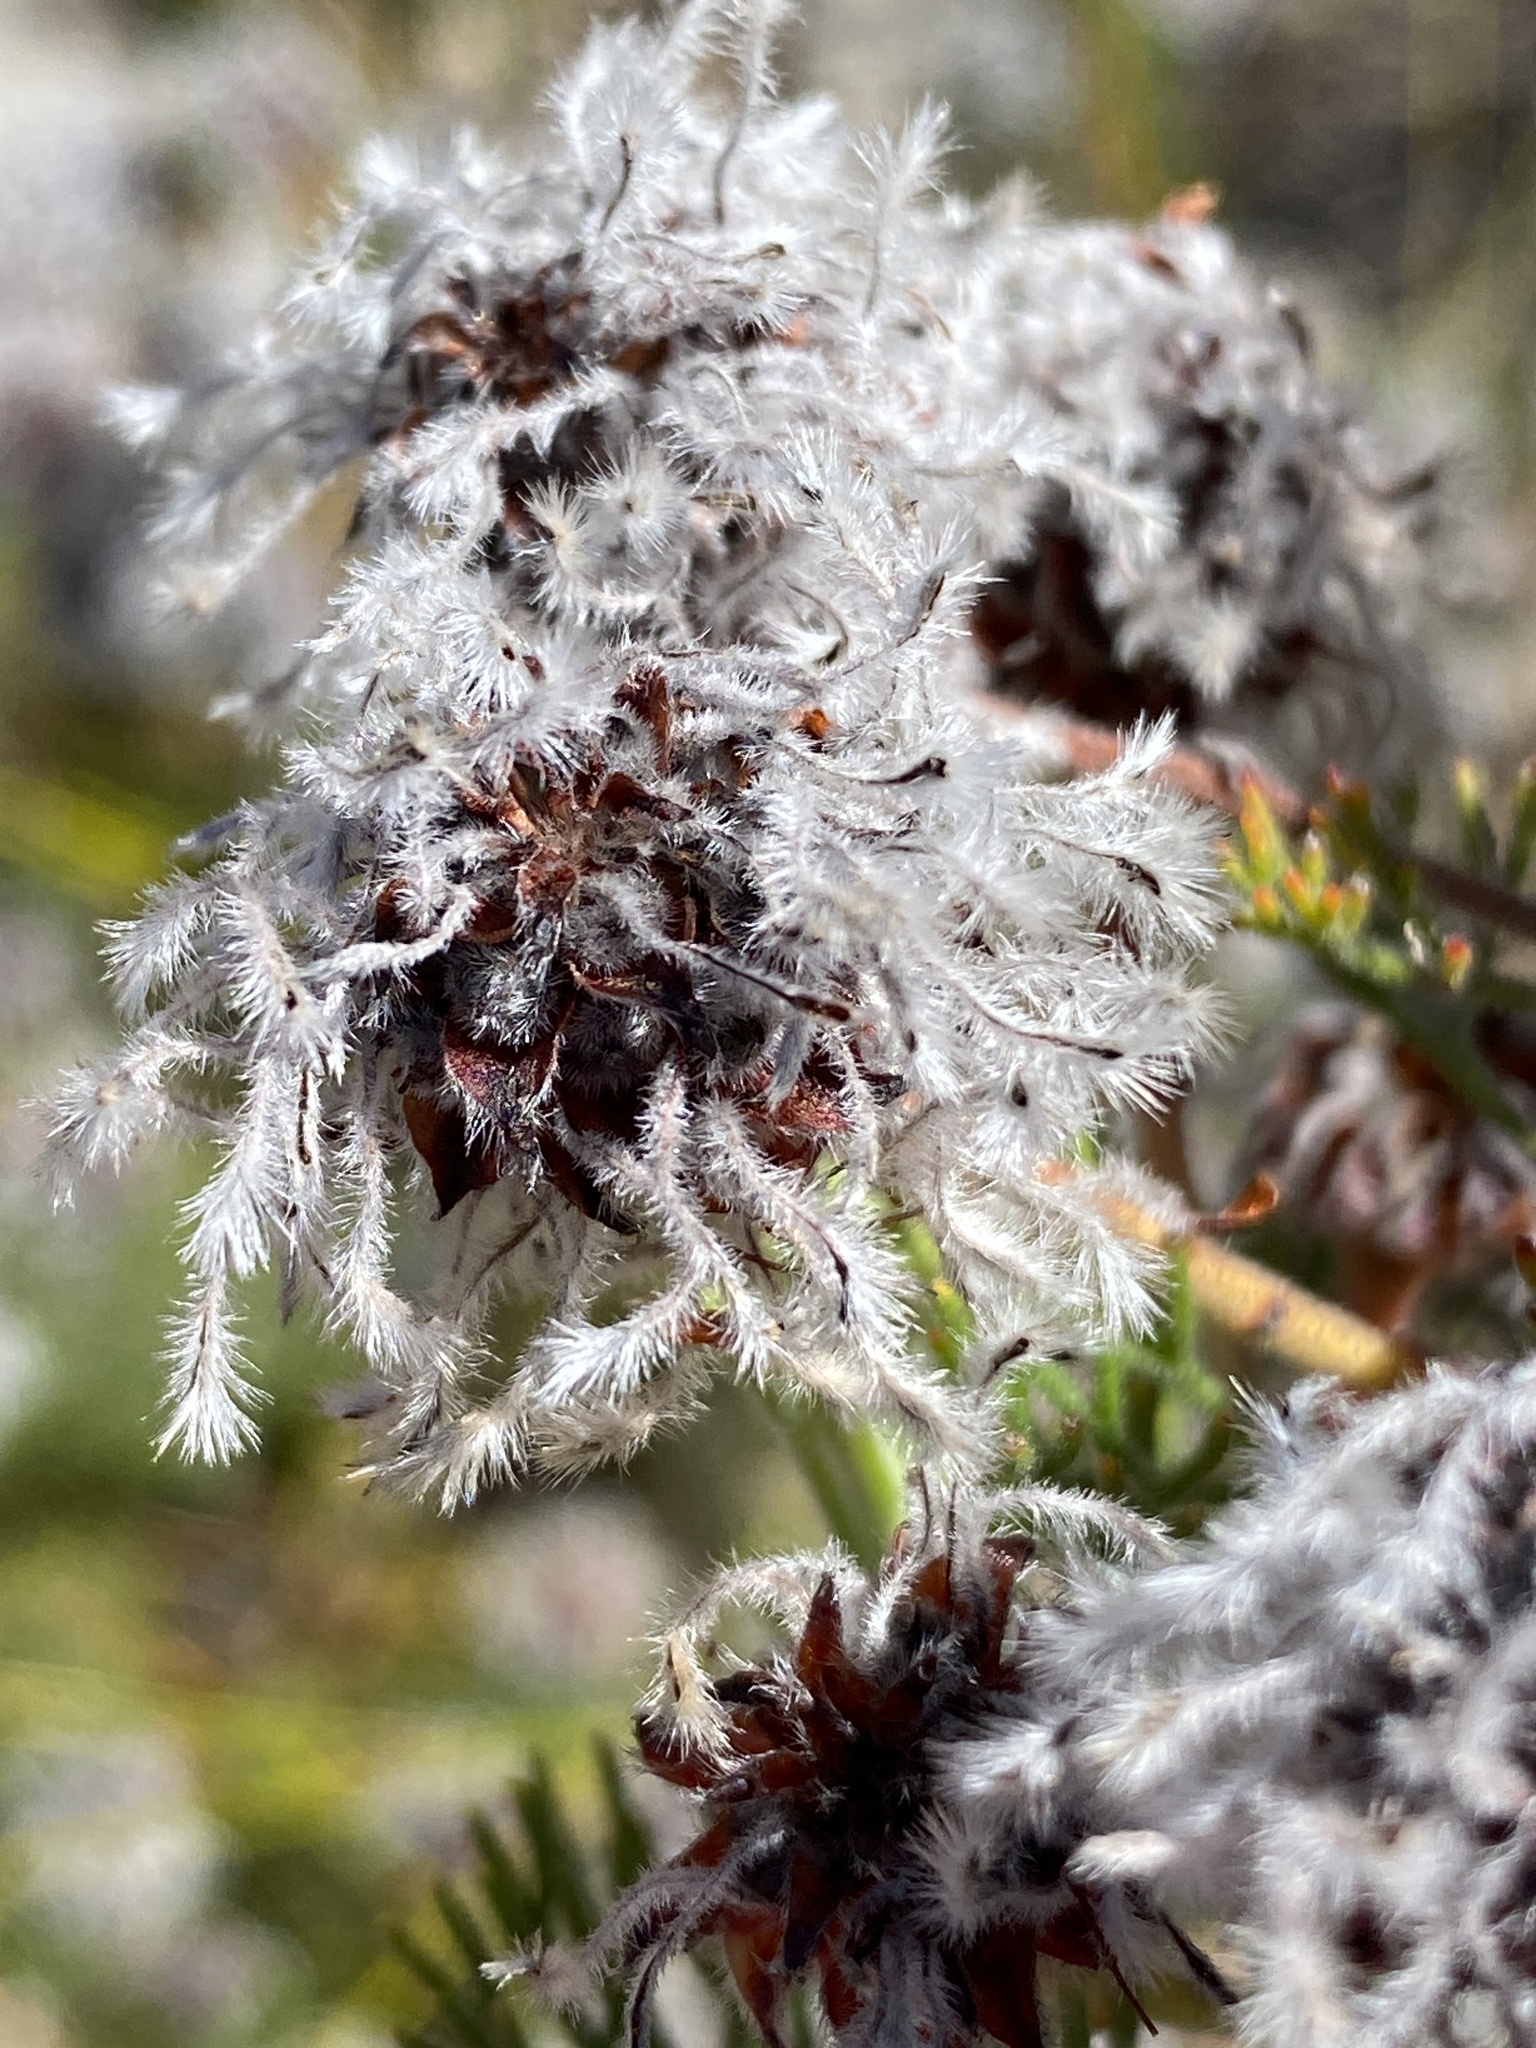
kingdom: Plantae
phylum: Tracheophyta
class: Magnoliopsida
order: Proteales
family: Proteaceae
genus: Serruria
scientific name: Serruria aitonii
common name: Marshmallow spiderhead
